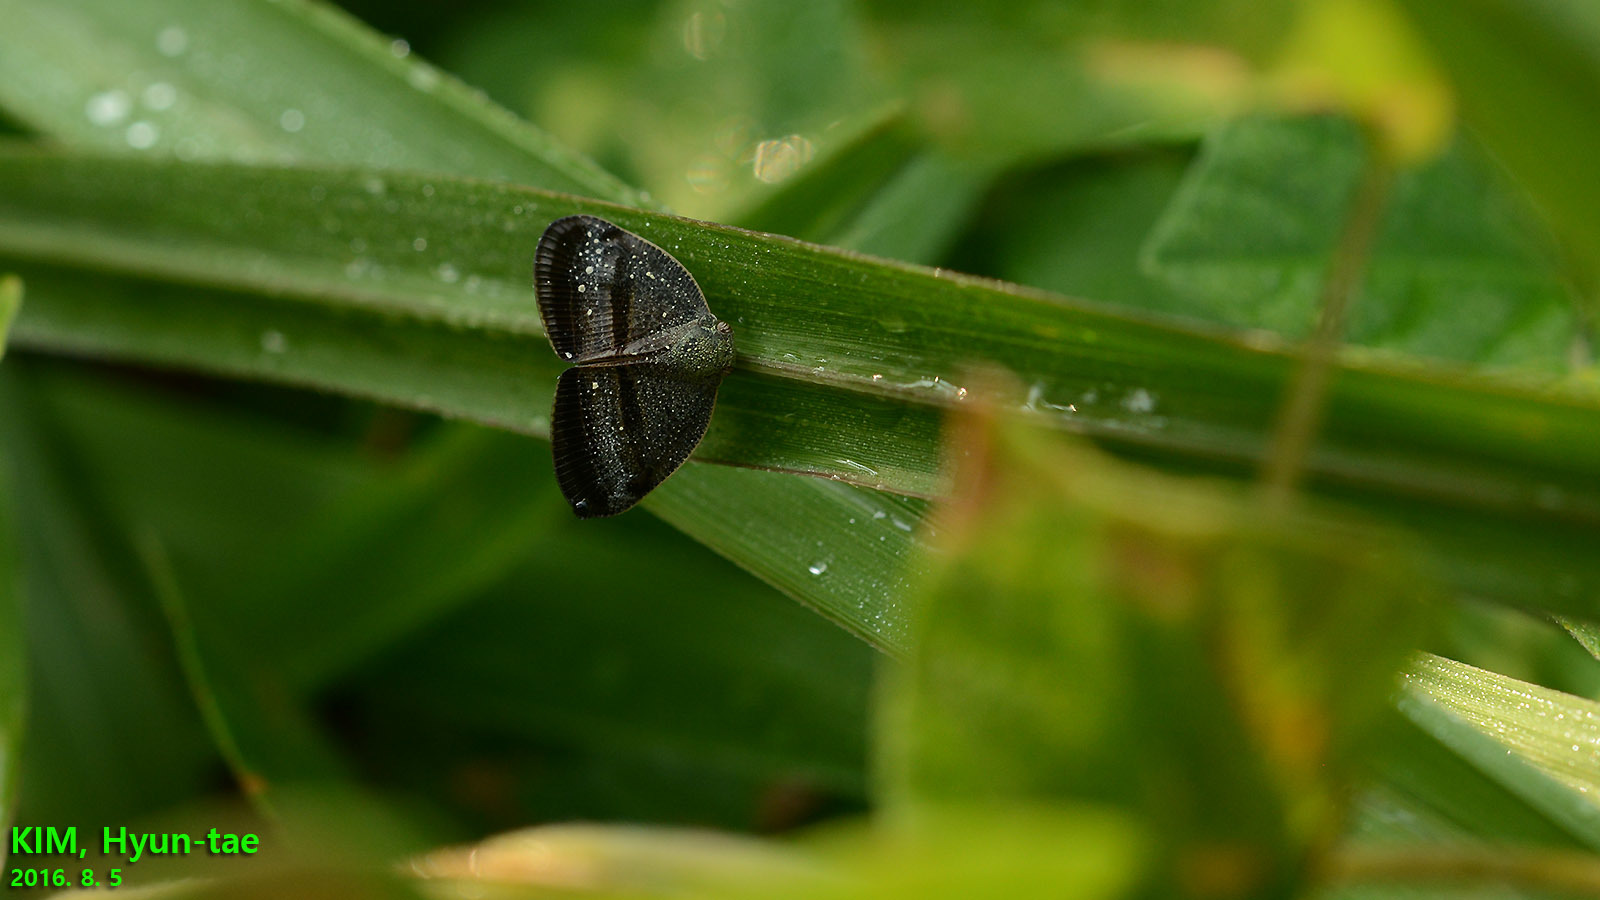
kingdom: Animalia
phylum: Arthropoda
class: Insecta
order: Hemiptera
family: Ricaniidae
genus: Ricania
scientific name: Ricania taeniata
